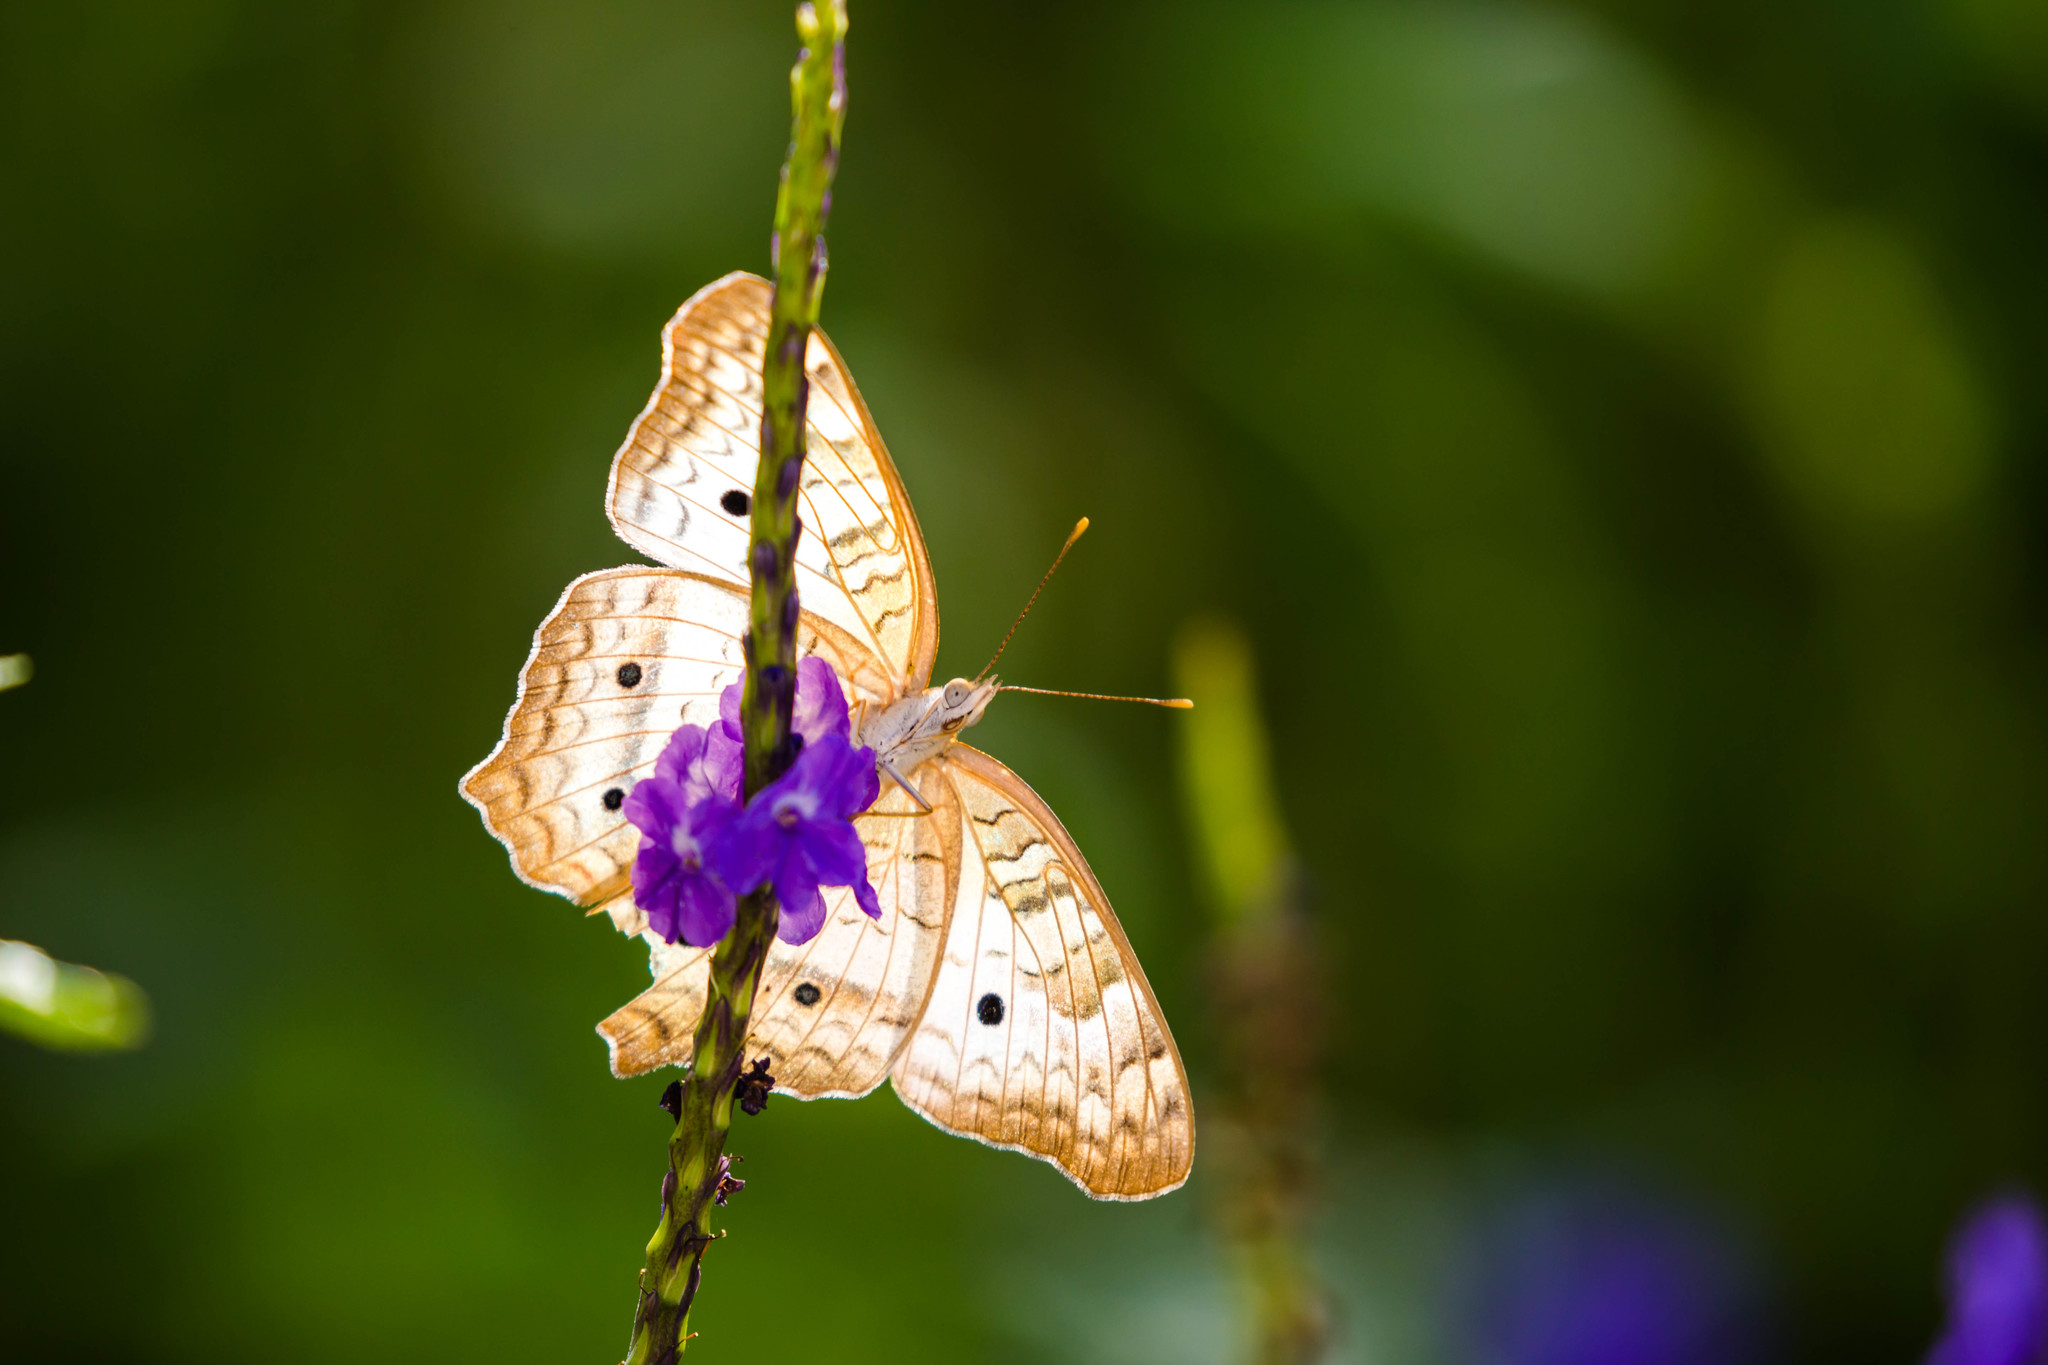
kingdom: Animalia
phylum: Arthropoda
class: Insecta
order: Lepidoptera
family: Nymphalidae
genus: Anartia
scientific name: Anartia jatrophae
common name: White peacock
